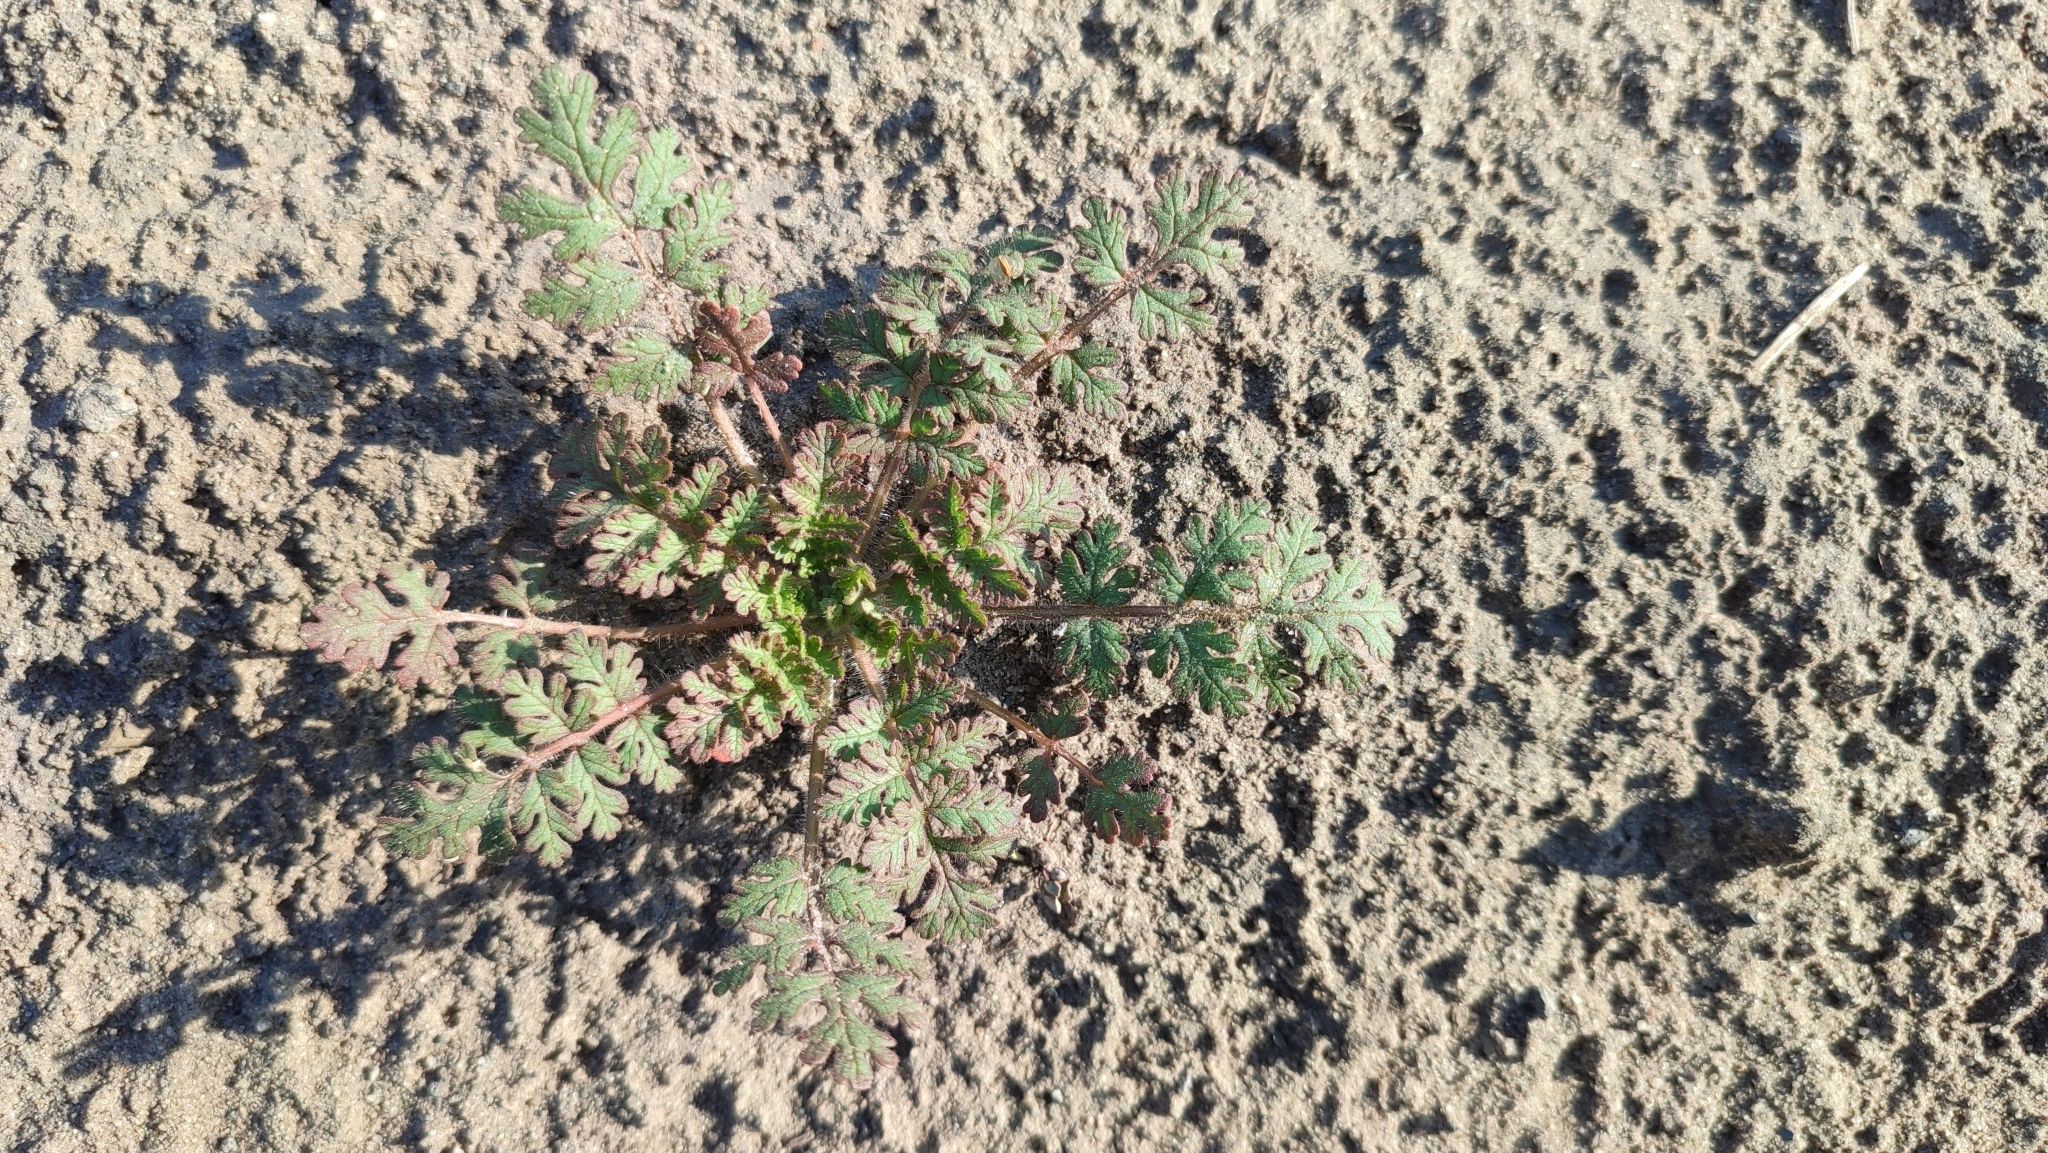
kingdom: Plantae
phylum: Tracheophyta
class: Magnoliopsida
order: Geraniales
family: Geraniaceae
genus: Erodium
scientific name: Erodium cicutarium
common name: Common stork's-bill
